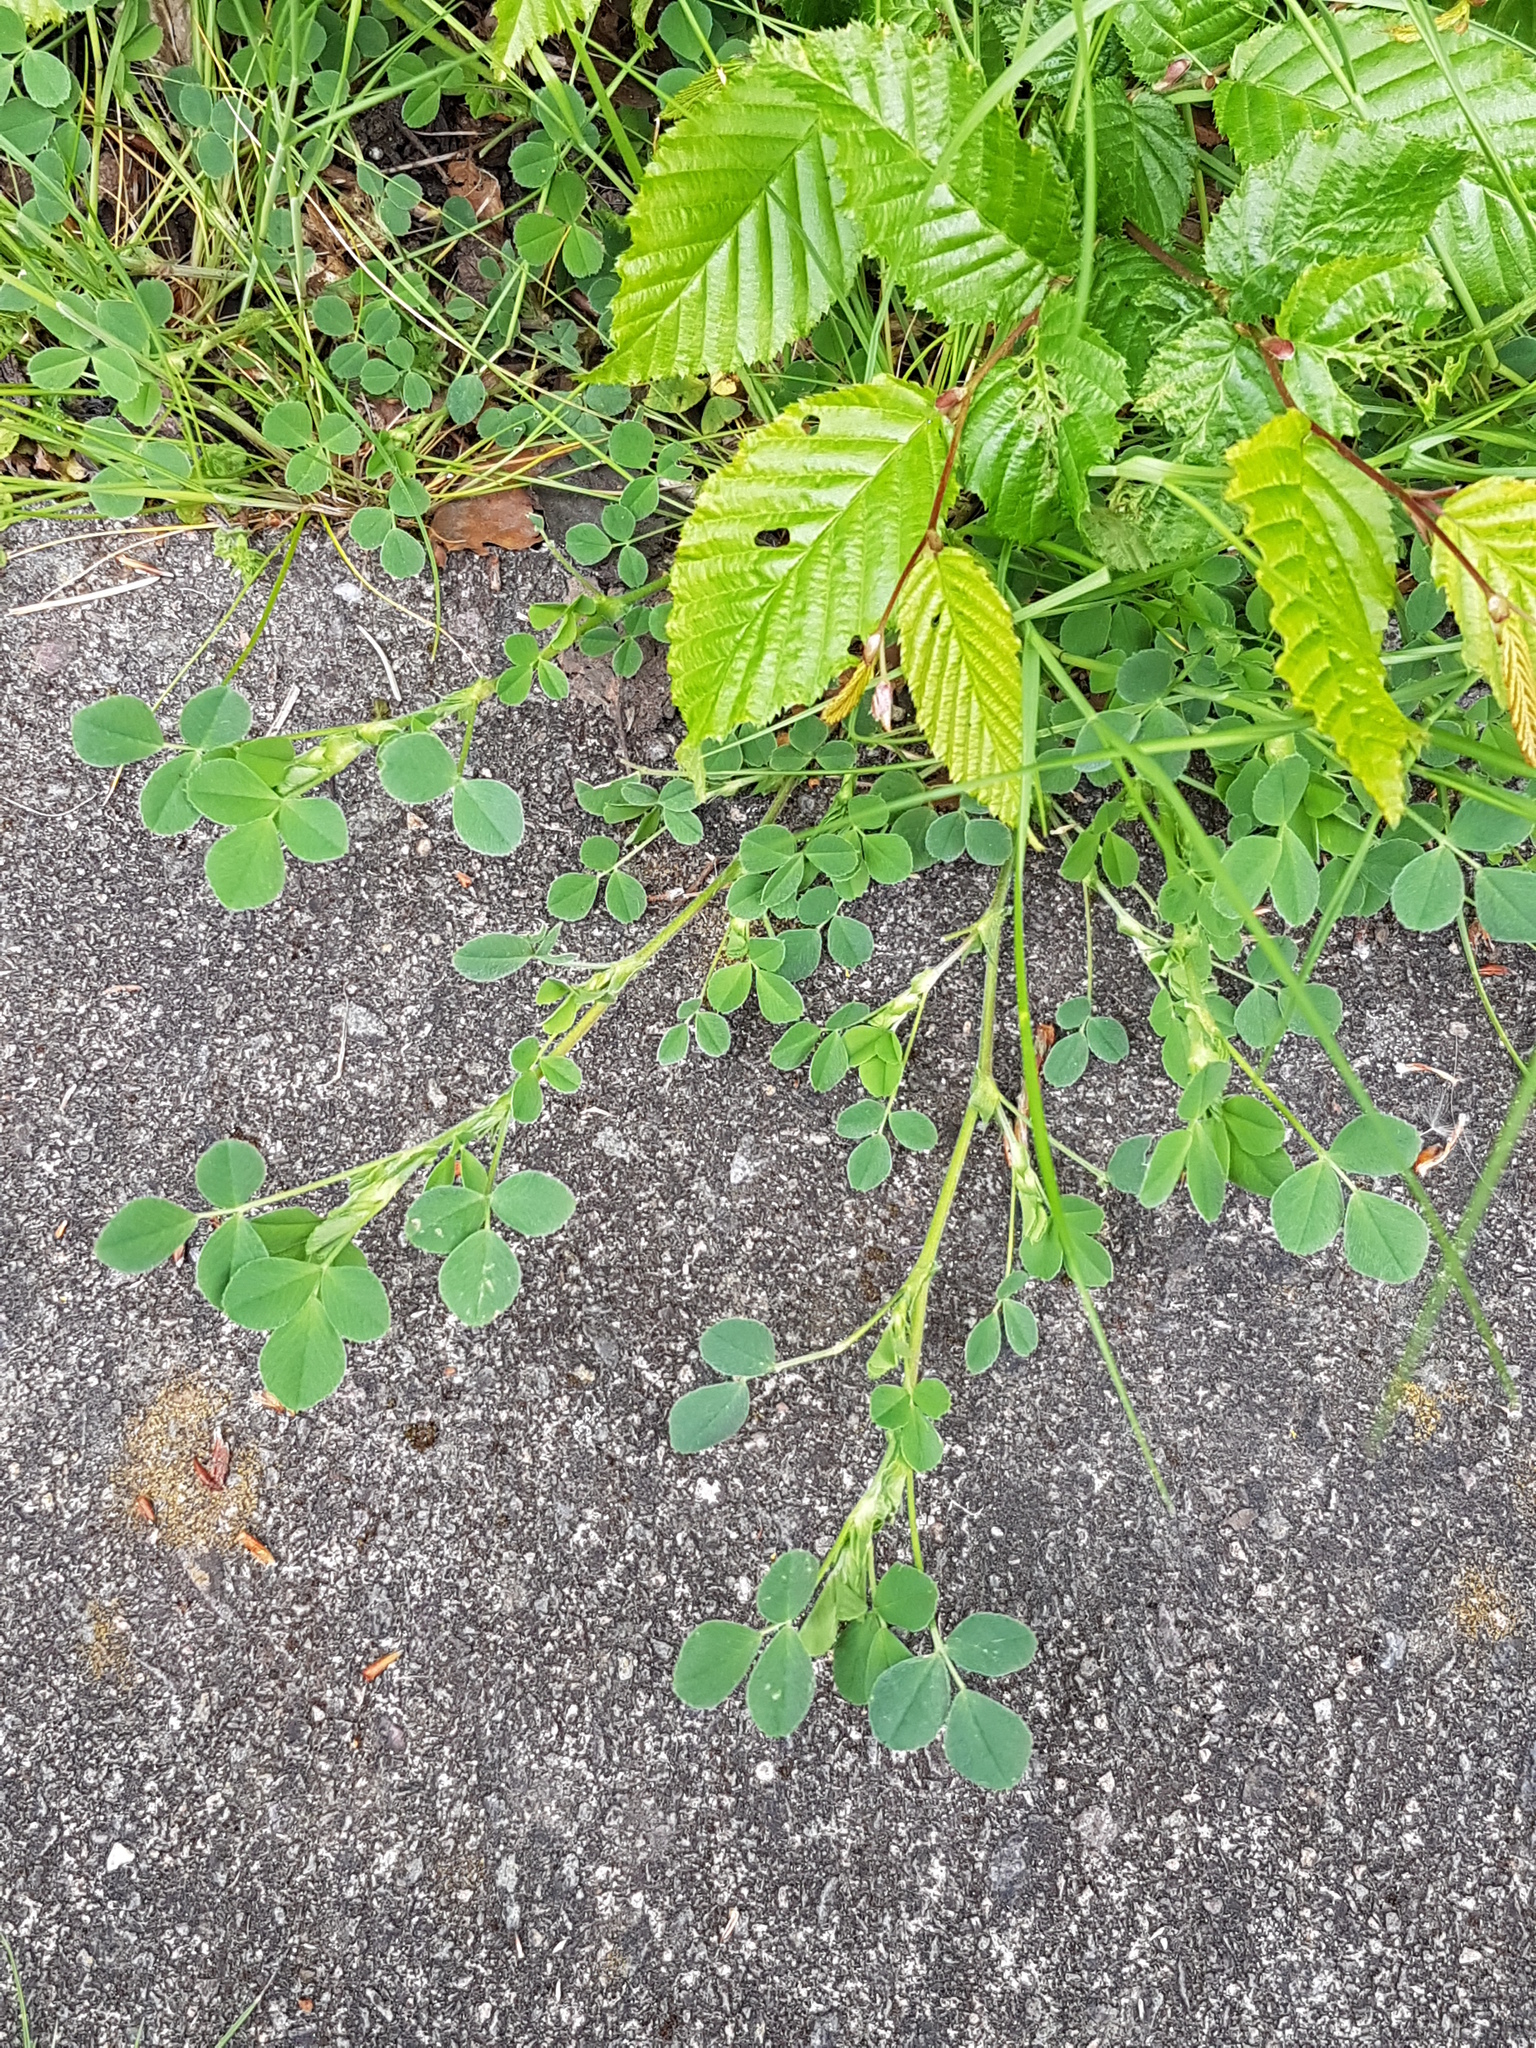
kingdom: Plantae
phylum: Tracheophyta
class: Magnoliopsida
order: Fabales
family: Fabaceae
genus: Medicago
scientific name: Medicago lupulina
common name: Black medick
